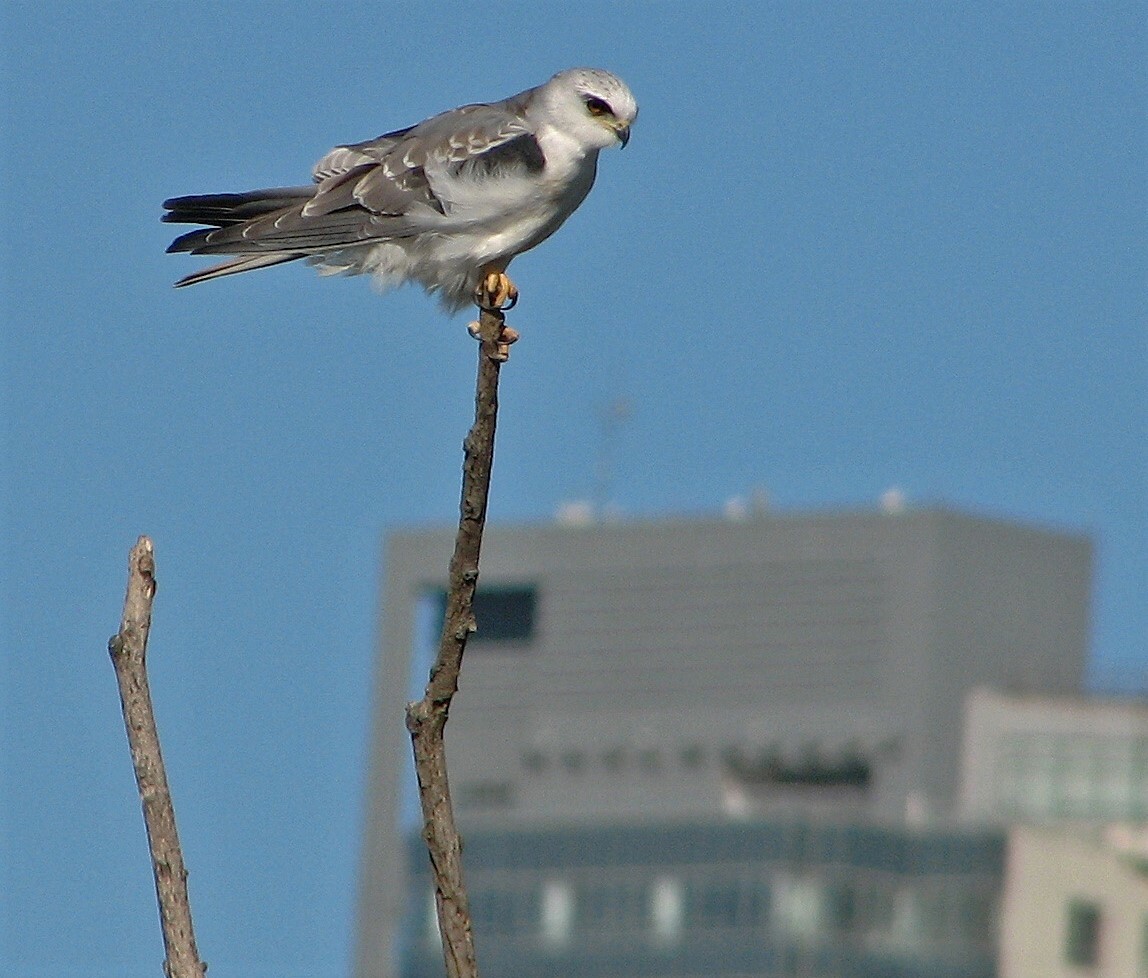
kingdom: Animalia
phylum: Chordata
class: Aves
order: Accipitriformes
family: Accipitridae
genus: Elanus
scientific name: Elanus leucurus
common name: White-tailed kite
